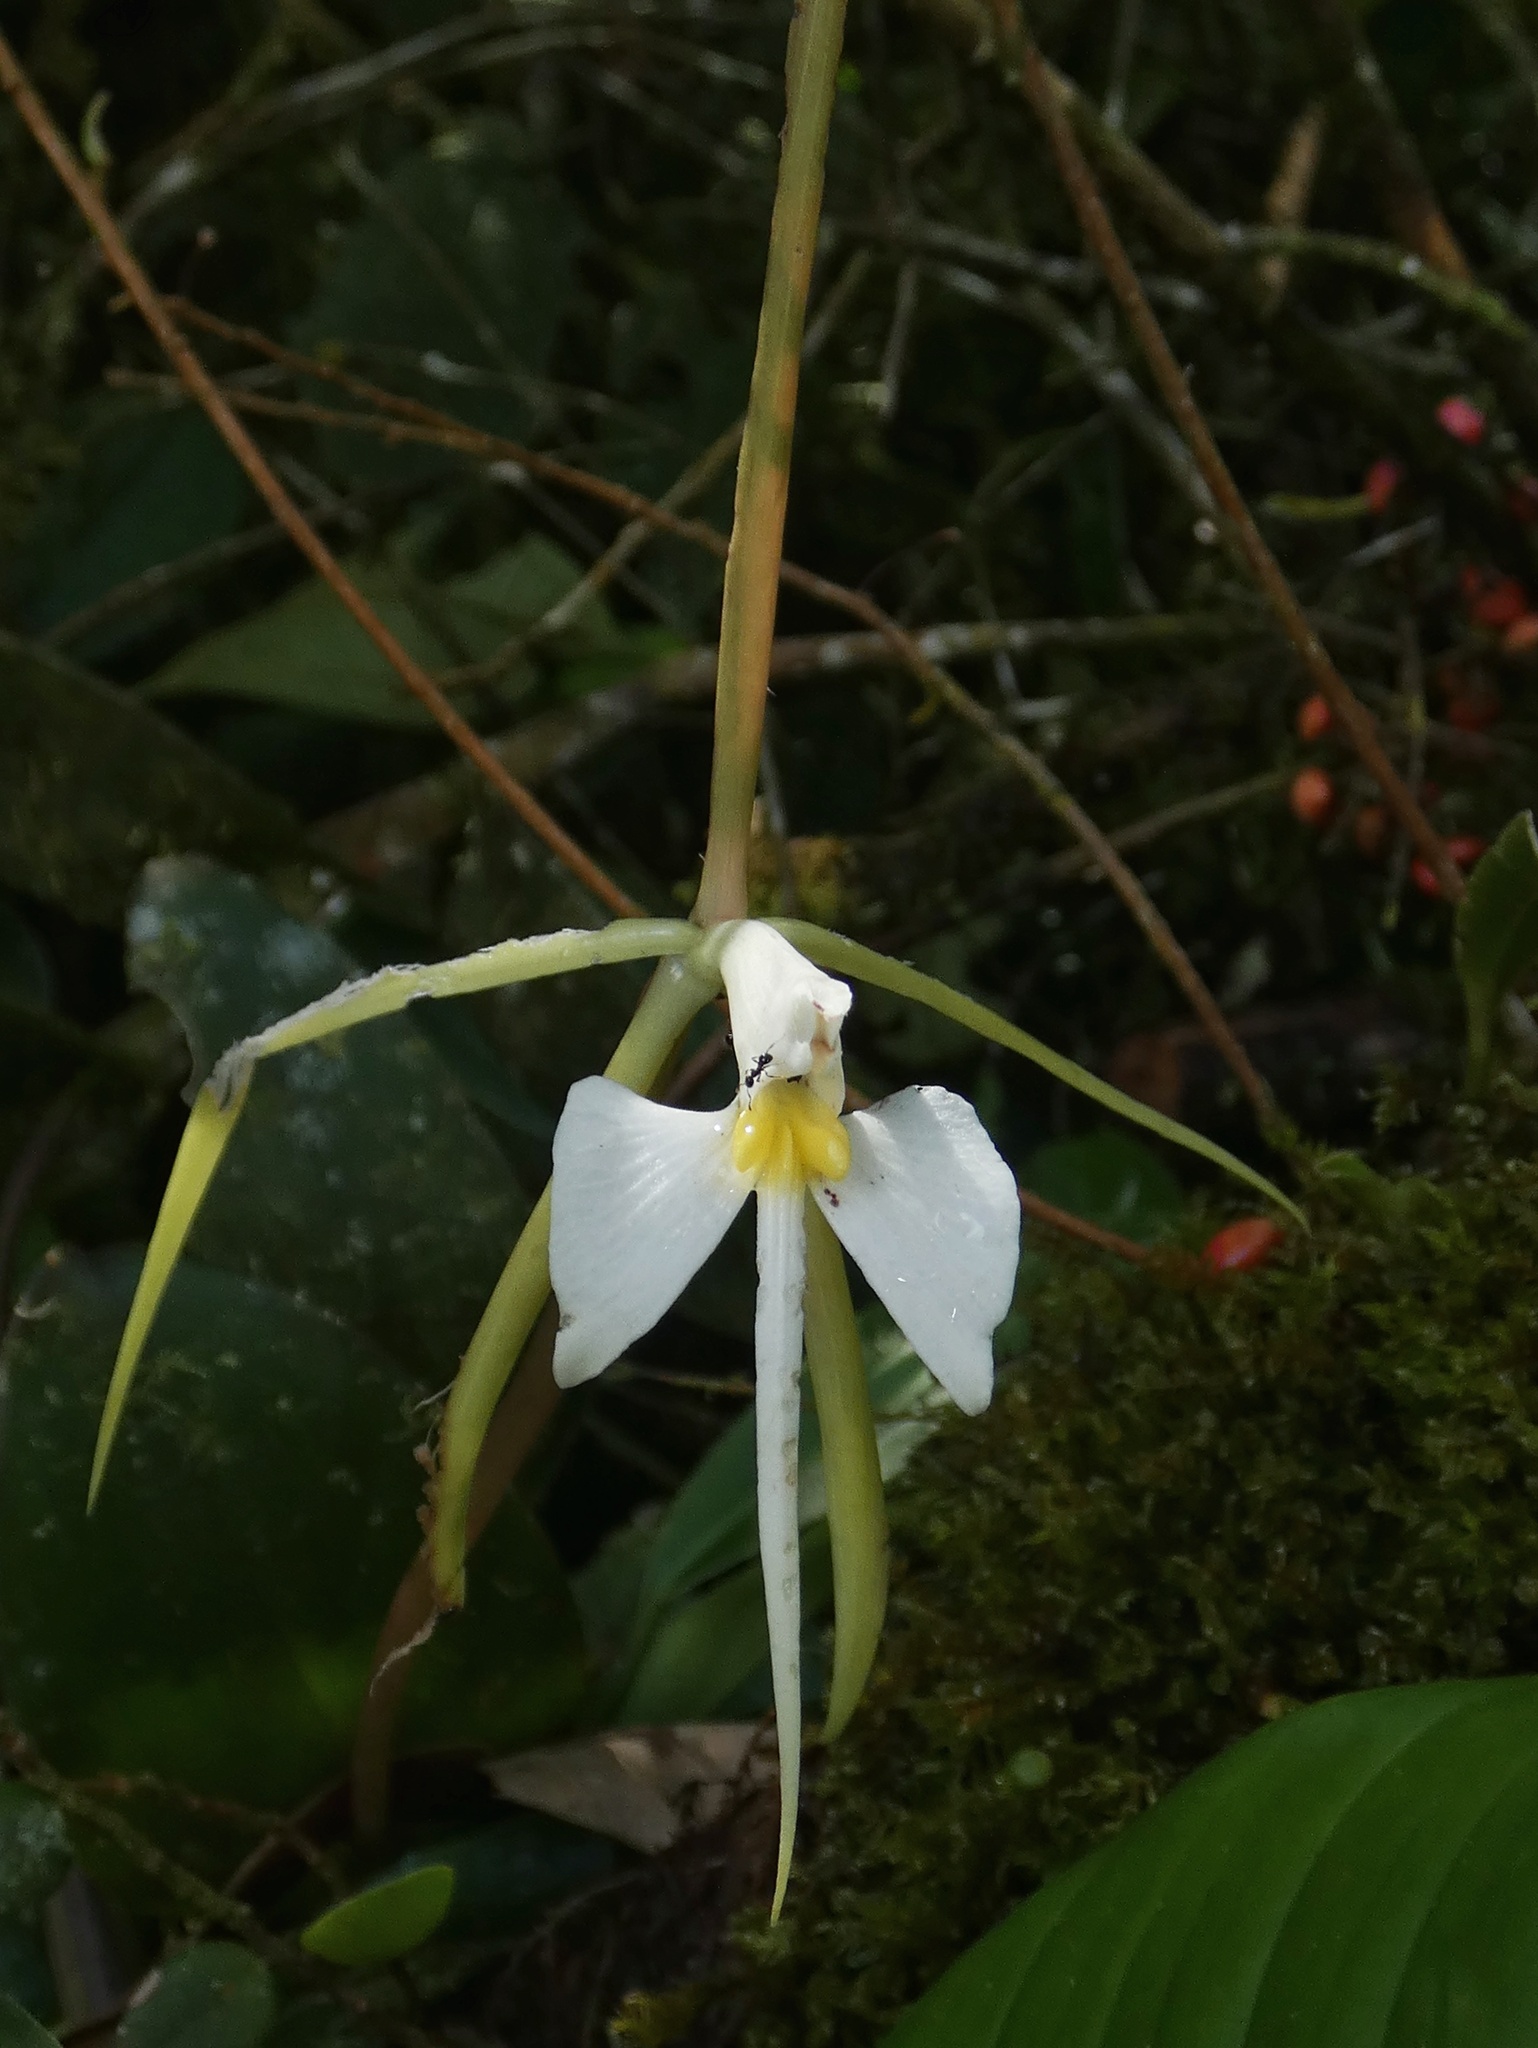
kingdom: Plantae
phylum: Tracheophyta
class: Liliopsida
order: Asparagales
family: Orchidaceae
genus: Epidendrum
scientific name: Epidendrum nocturnum
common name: Night scented orchid
